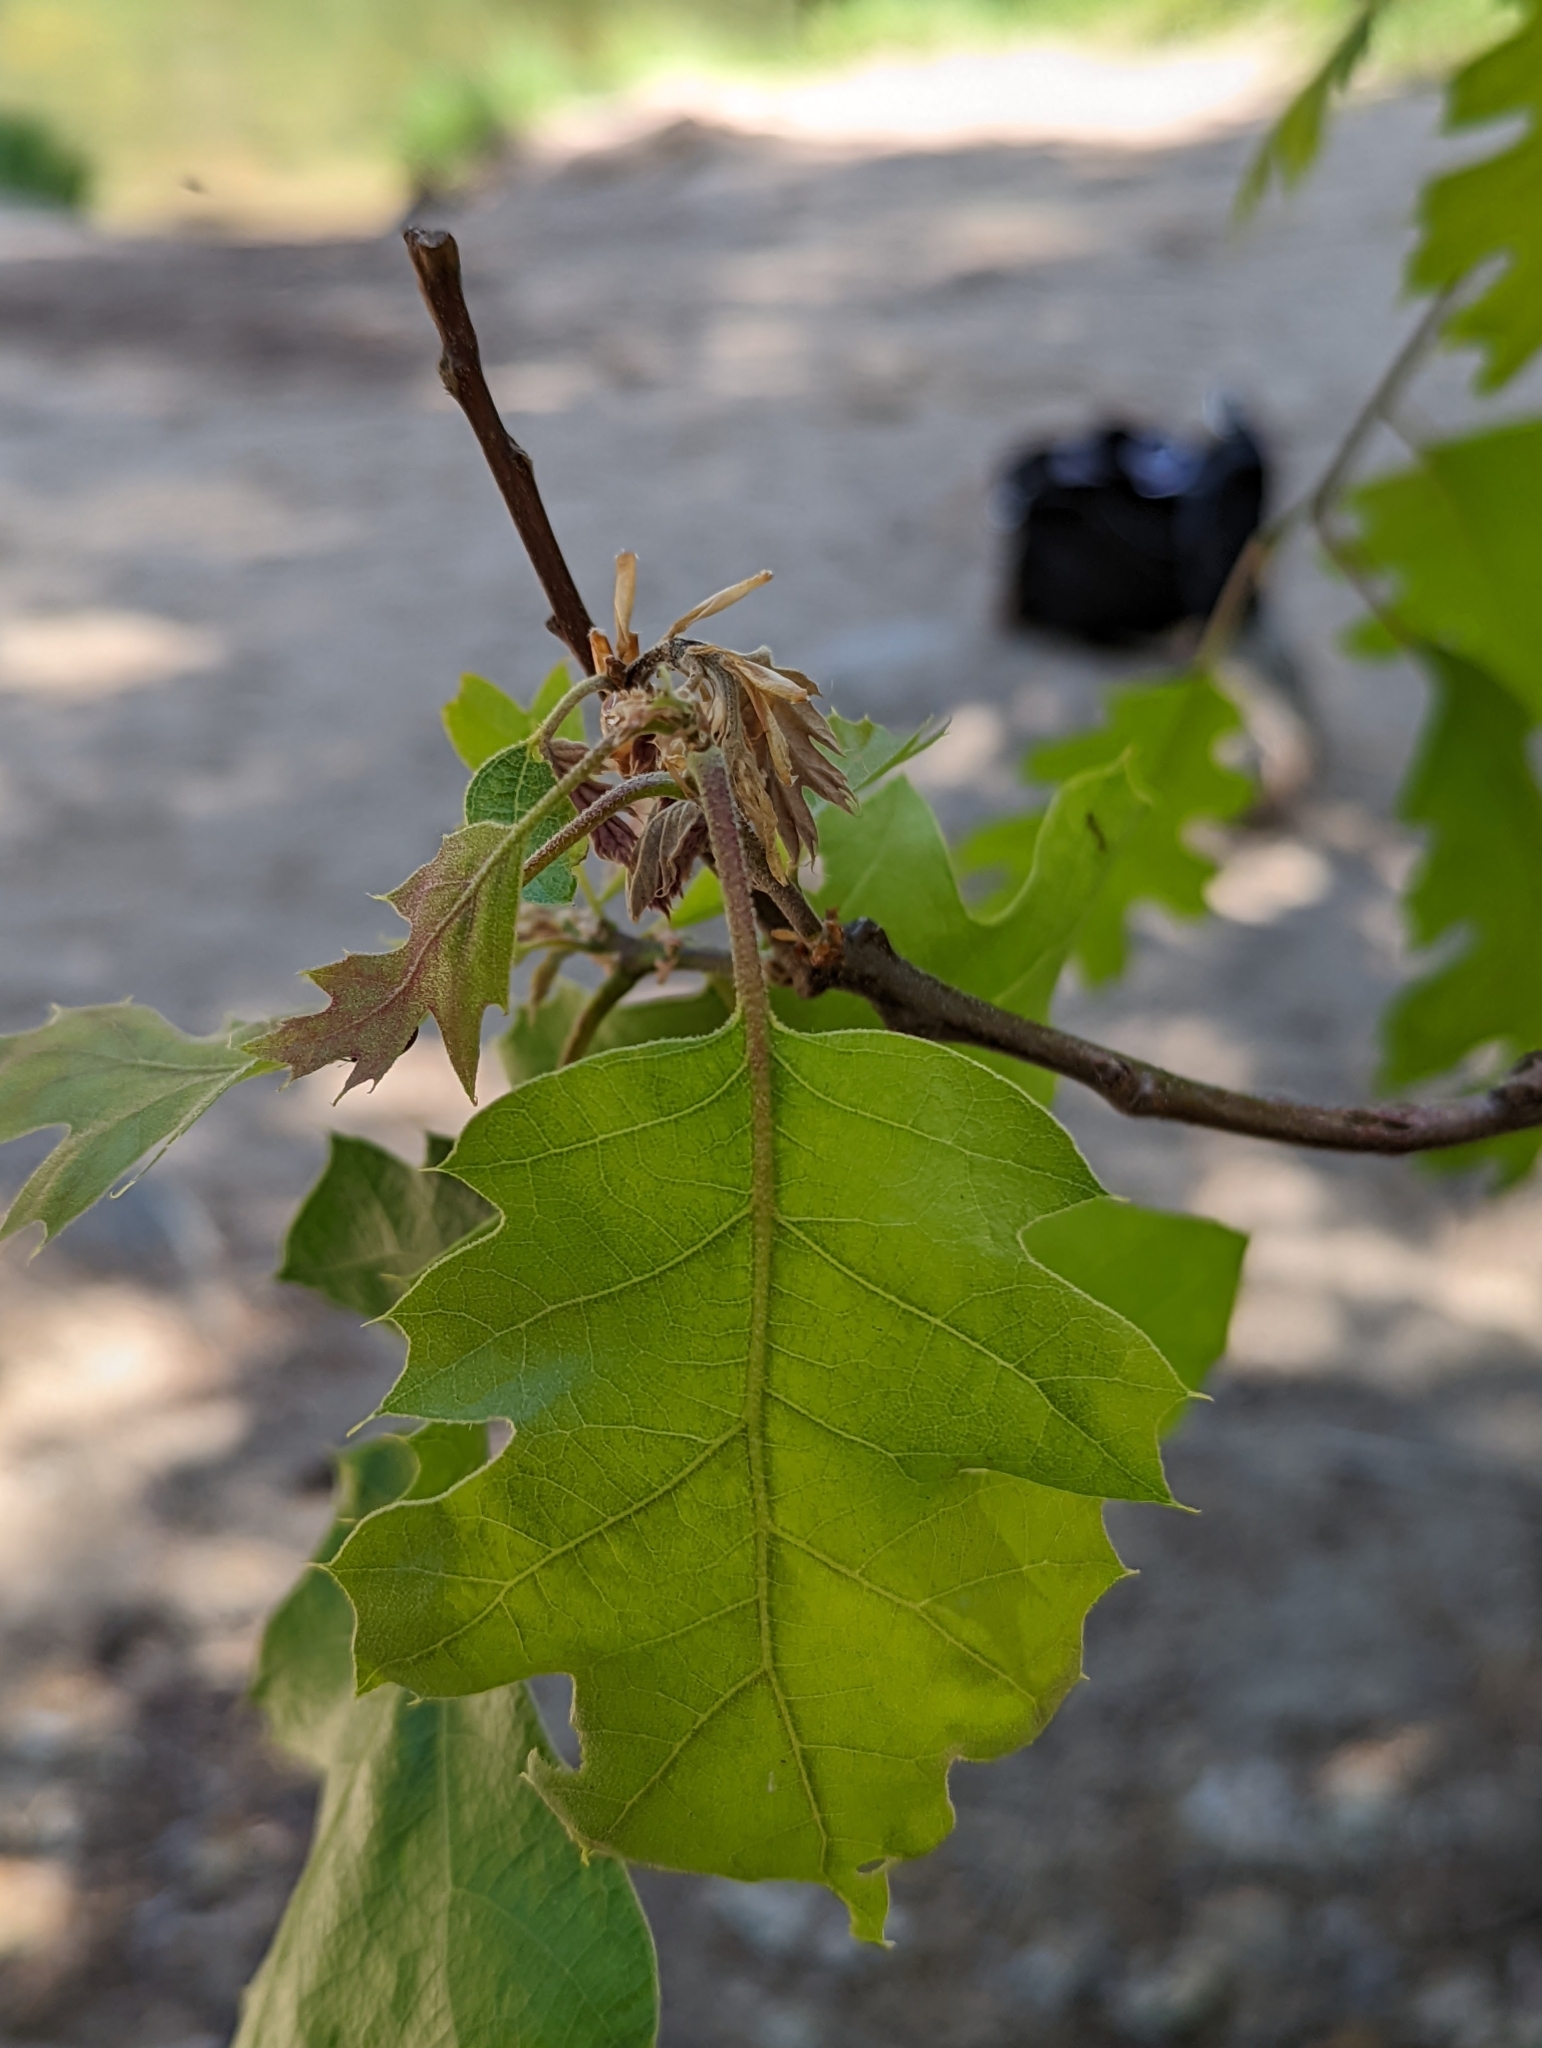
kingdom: Plantae
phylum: Tracheophyta
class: Magnoliopsida
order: Fagales
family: Fagaceae
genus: Quercus
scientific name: Quercus kelloggii
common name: California black oak
